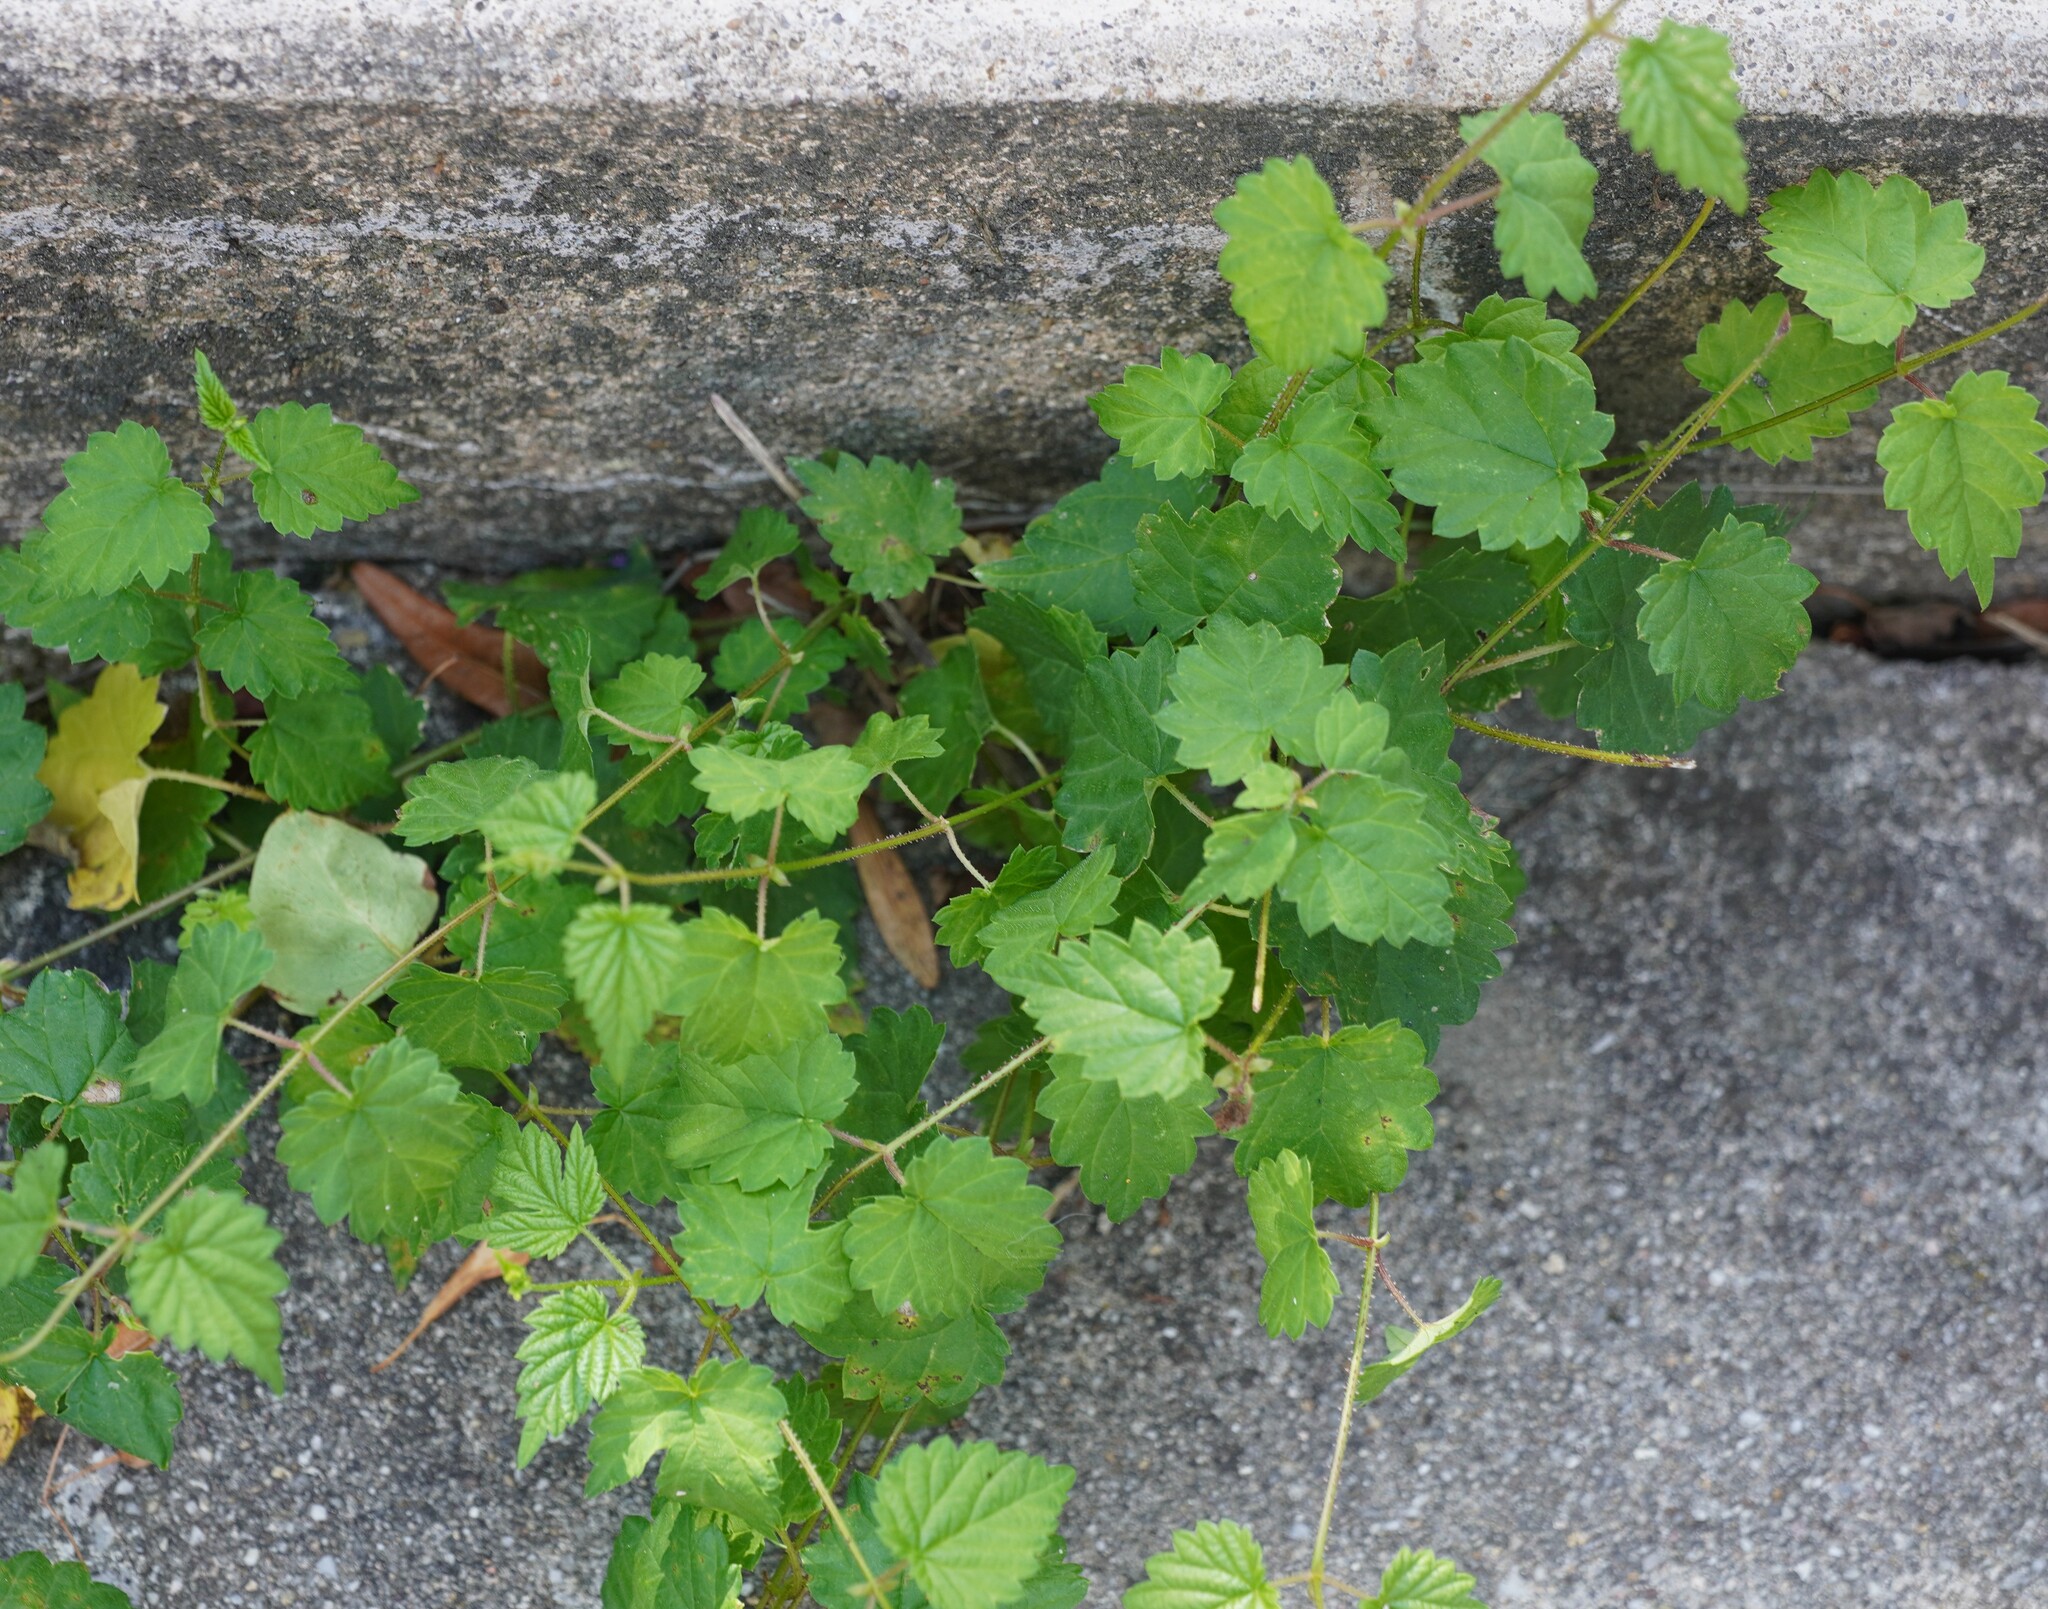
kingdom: Plantae
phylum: Tracheophyta
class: Magnoliopsida
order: Rosales
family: Cannabaceae
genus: Humulus
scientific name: Humulus lupulus
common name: Hop
